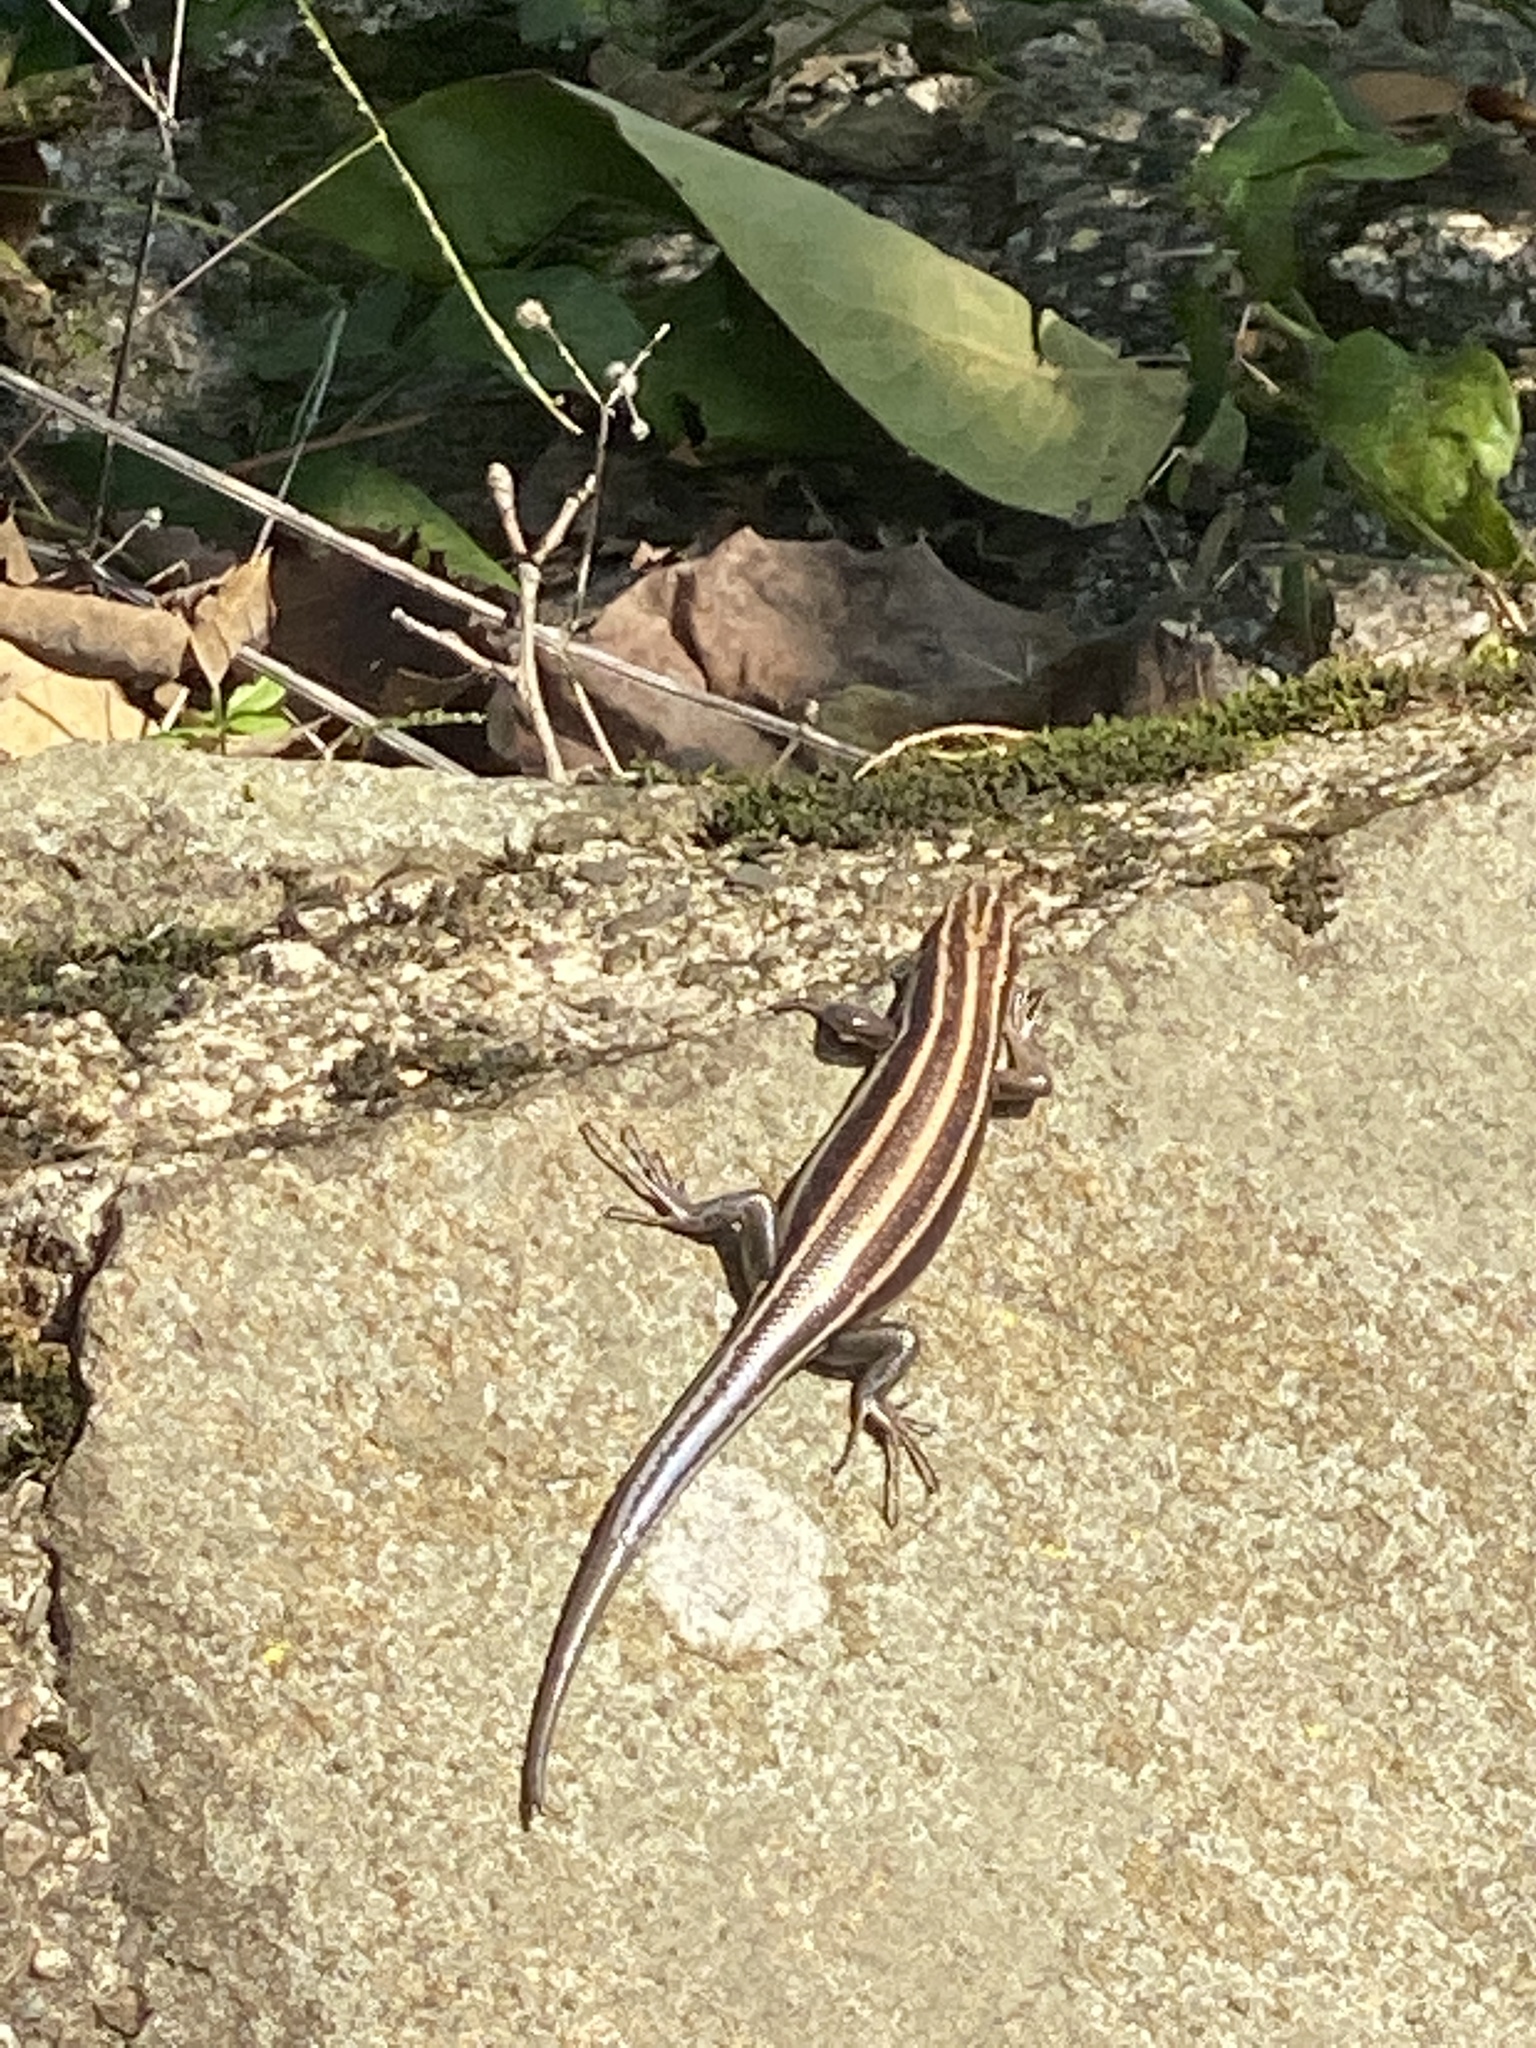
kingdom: Animalia
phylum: Chordata
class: Squamata
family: Scincidae
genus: Plestiodon
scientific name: Plestiodon fasciatus
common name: Five-lined skink
